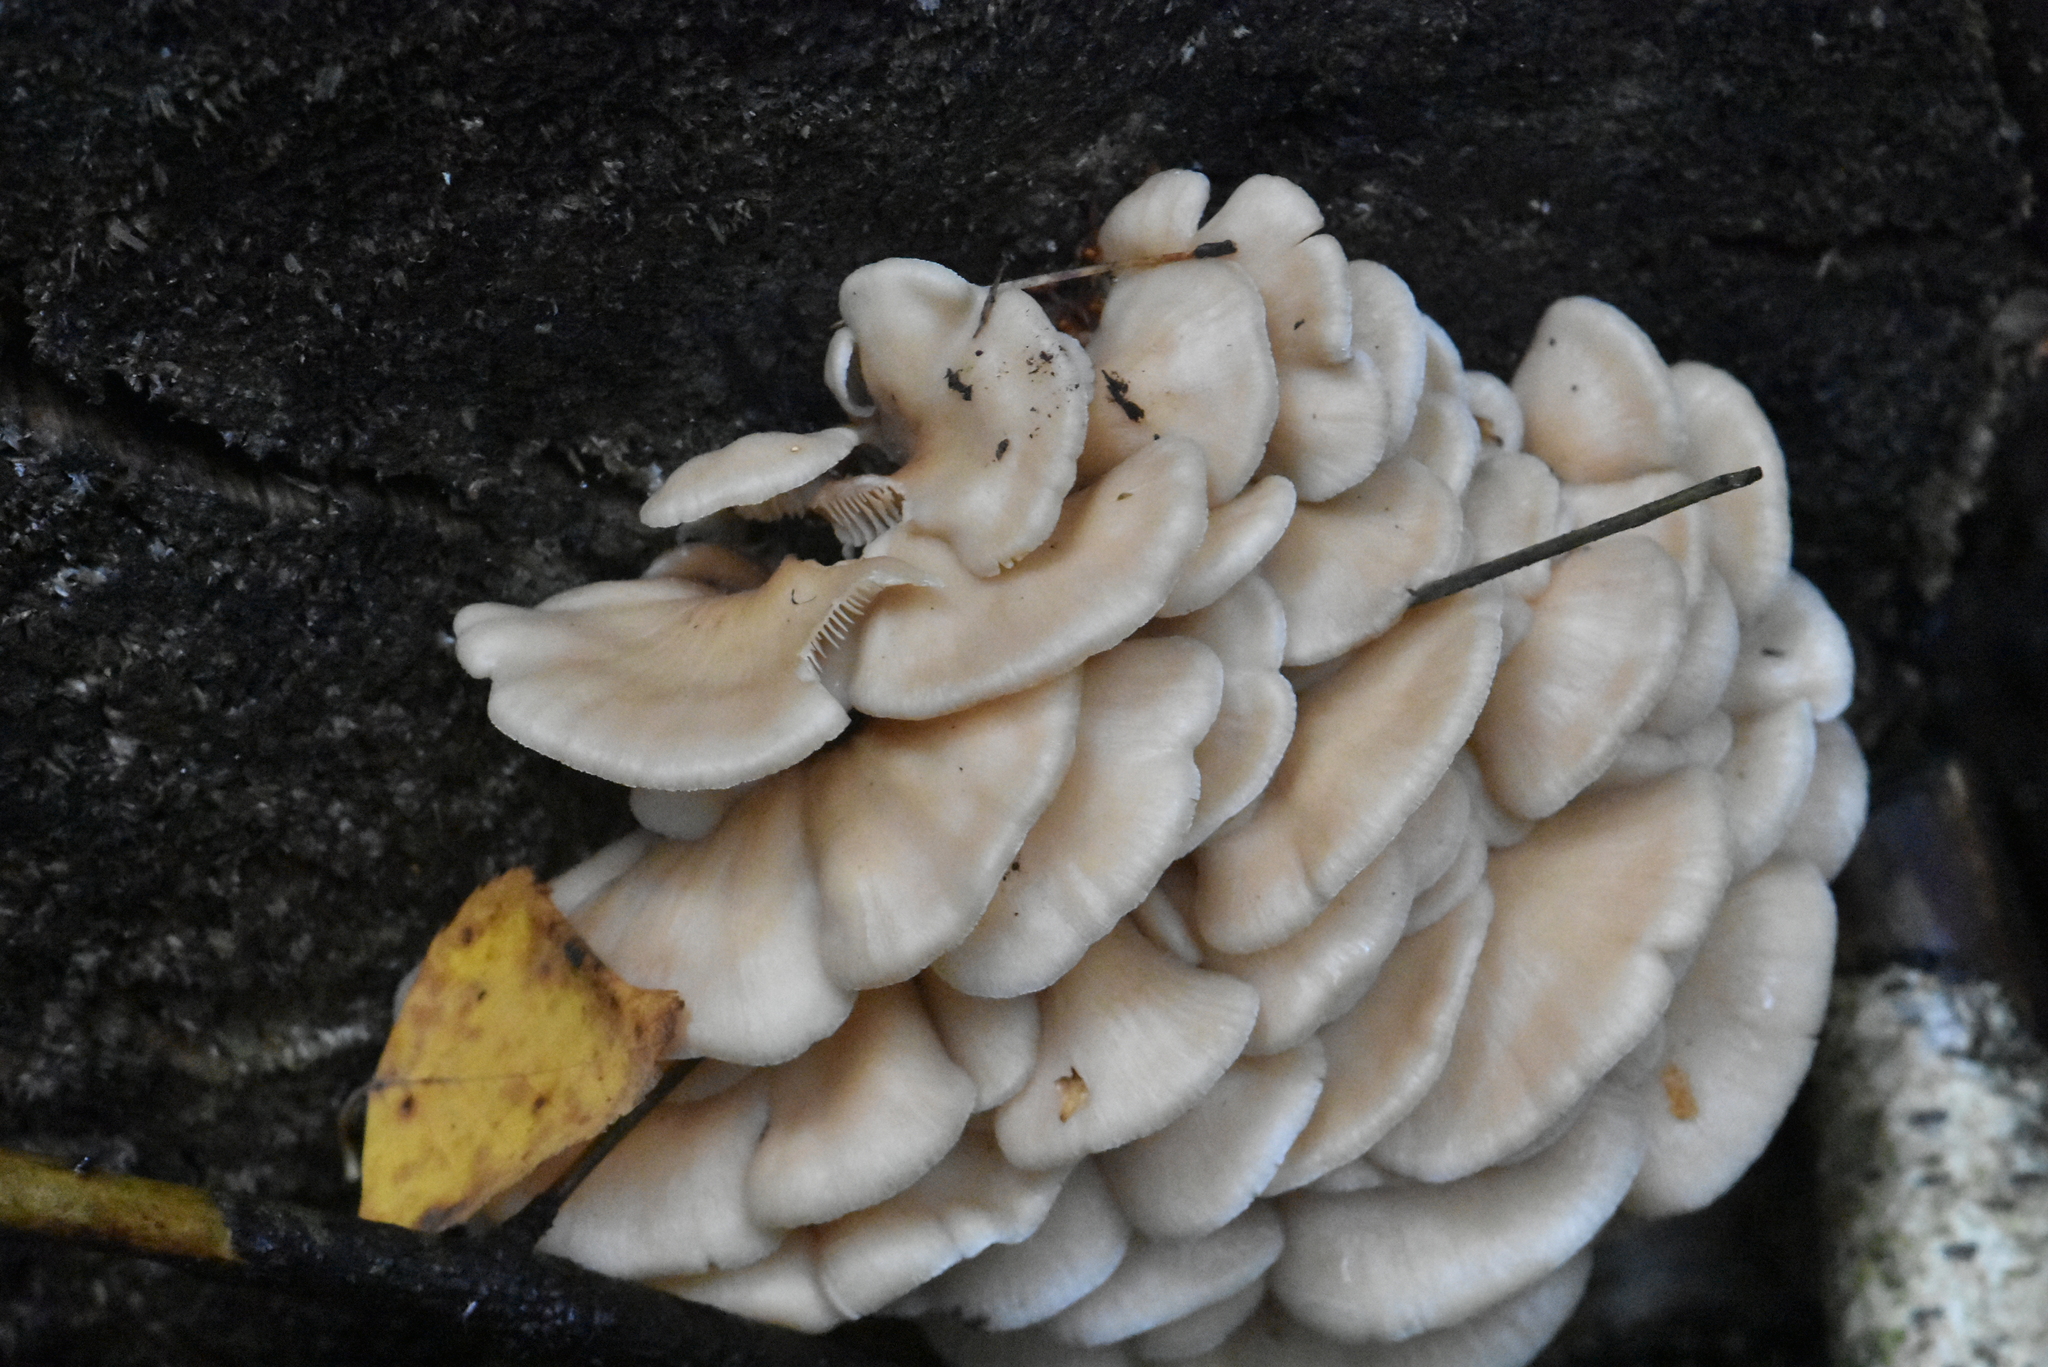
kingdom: Fungi
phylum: Basidiomycota
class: Agaricomycetes
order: Agaricales
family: Pleurotaceae
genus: Pleurotus
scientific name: Pleurotus ostreatus
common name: Oyster mushroom
